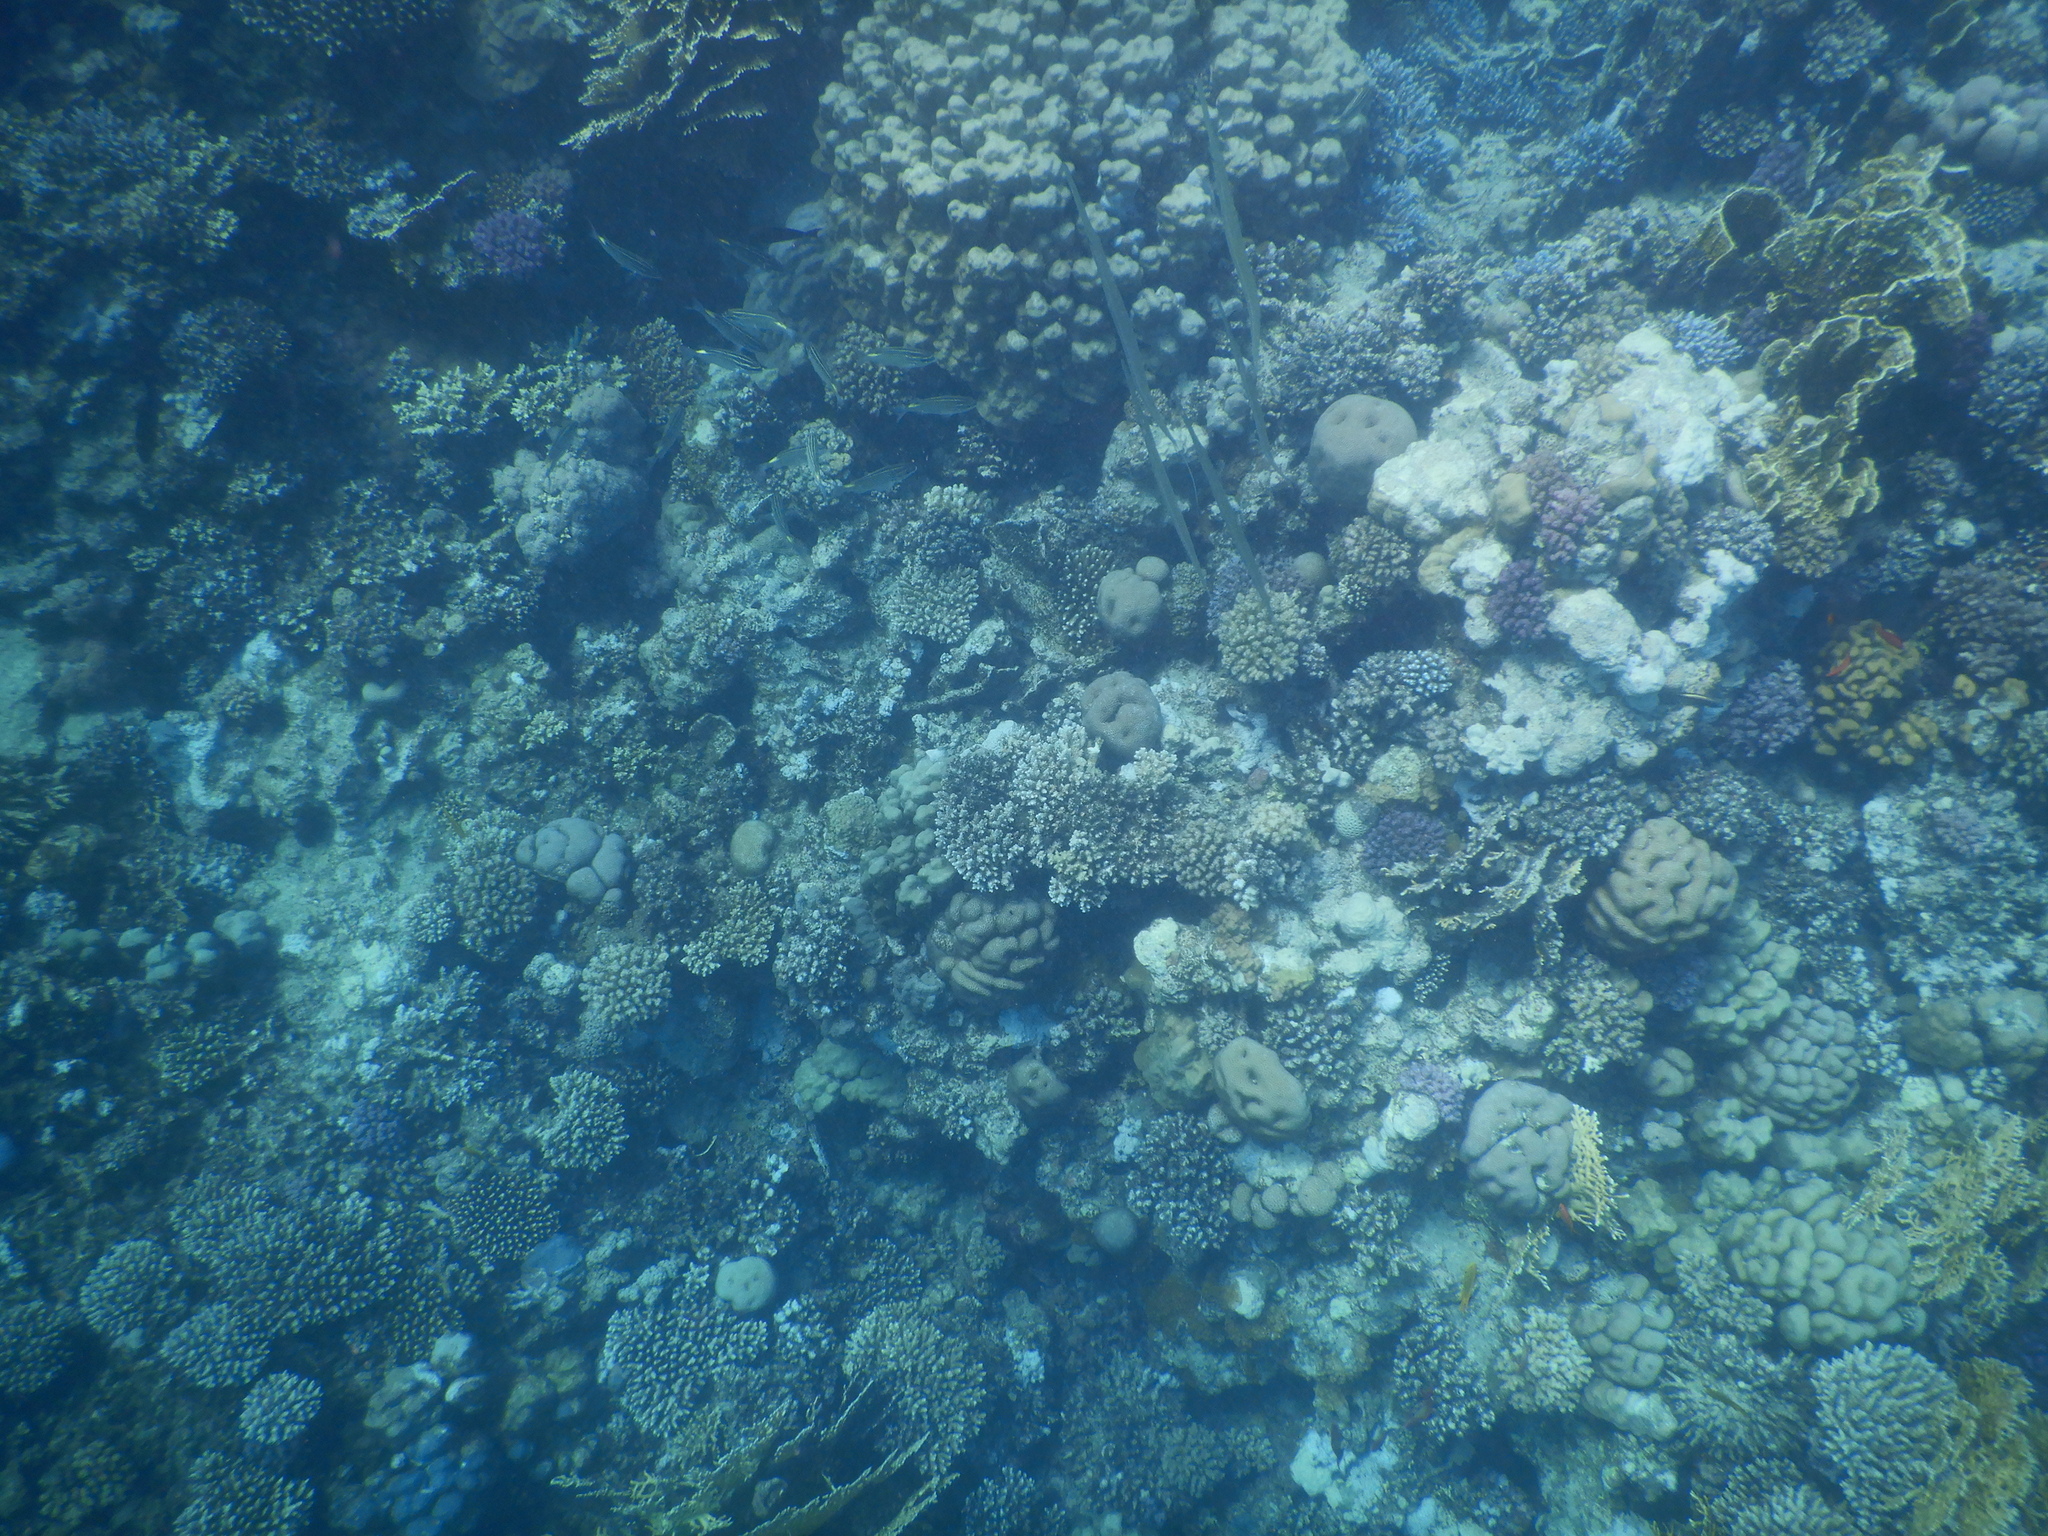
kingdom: Animalia
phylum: Chordata
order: Syngnathiformes
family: Fistulariidae
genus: Fistularia
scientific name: Fistularia commersonii
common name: Bluespotted cornetfish
